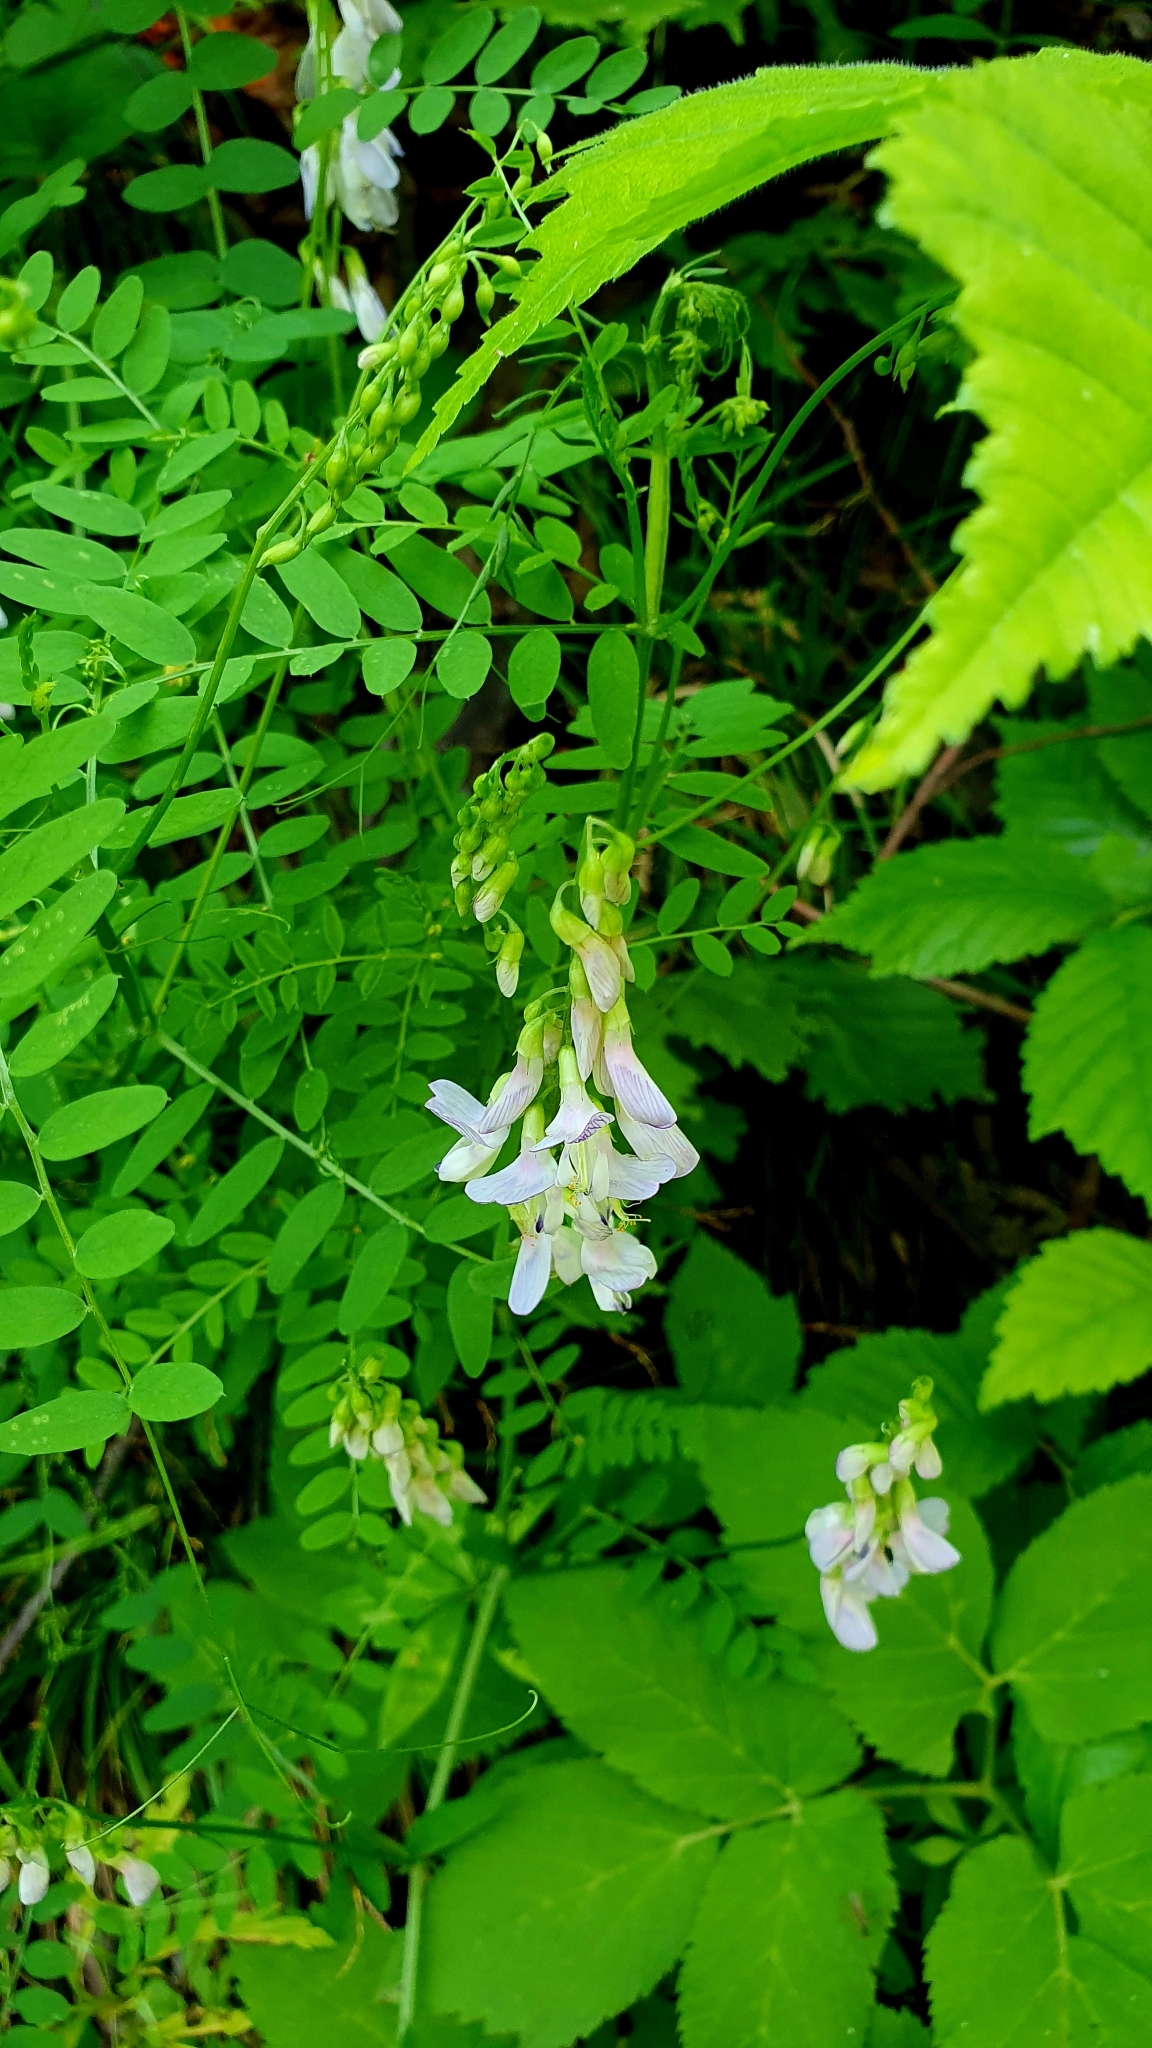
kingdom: Plantae
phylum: Tracheophyta
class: Magnoliopsida
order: Fabales
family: Fabaceae
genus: Vicia
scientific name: Vicia sylvatica
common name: Wood vetch
